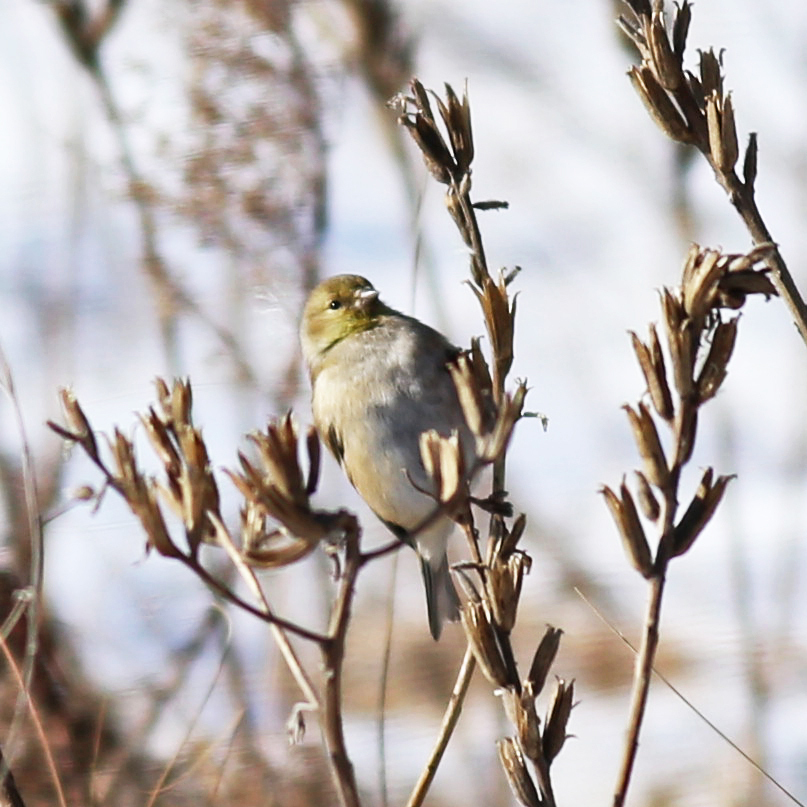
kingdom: Animalia
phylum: Chordata
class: Aves
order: Passeriformes
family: Fringillidae
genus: Spinus
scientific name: Spinus tristis
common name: American goldfinch
